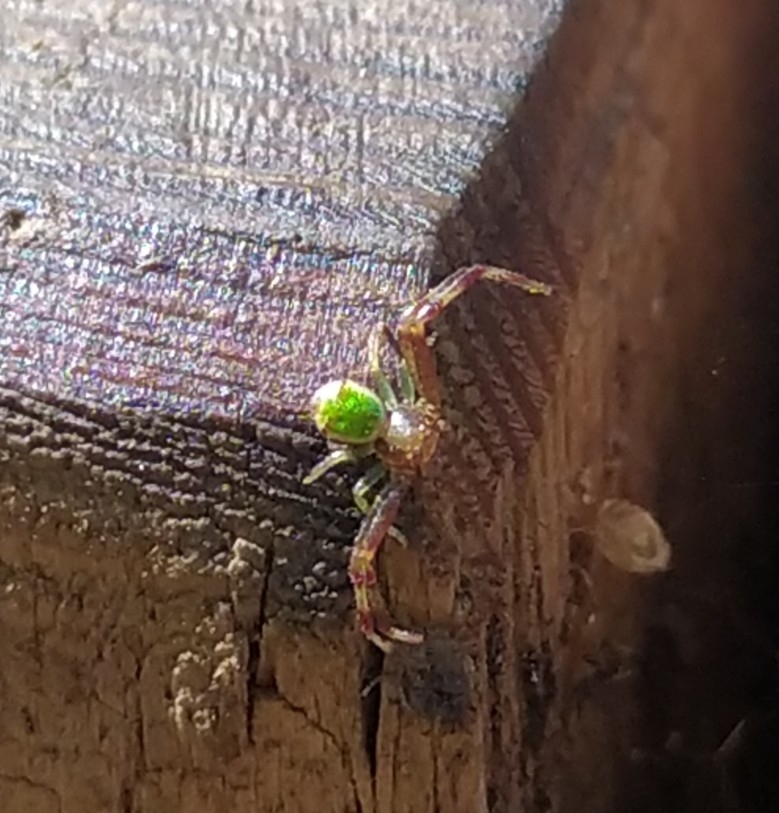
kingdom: Animalia
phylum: Arthropoda
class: Arachnida
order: Araneae
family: Thomisidae
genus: Ebrechtella
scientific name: Ebrechtella tricuspidata
